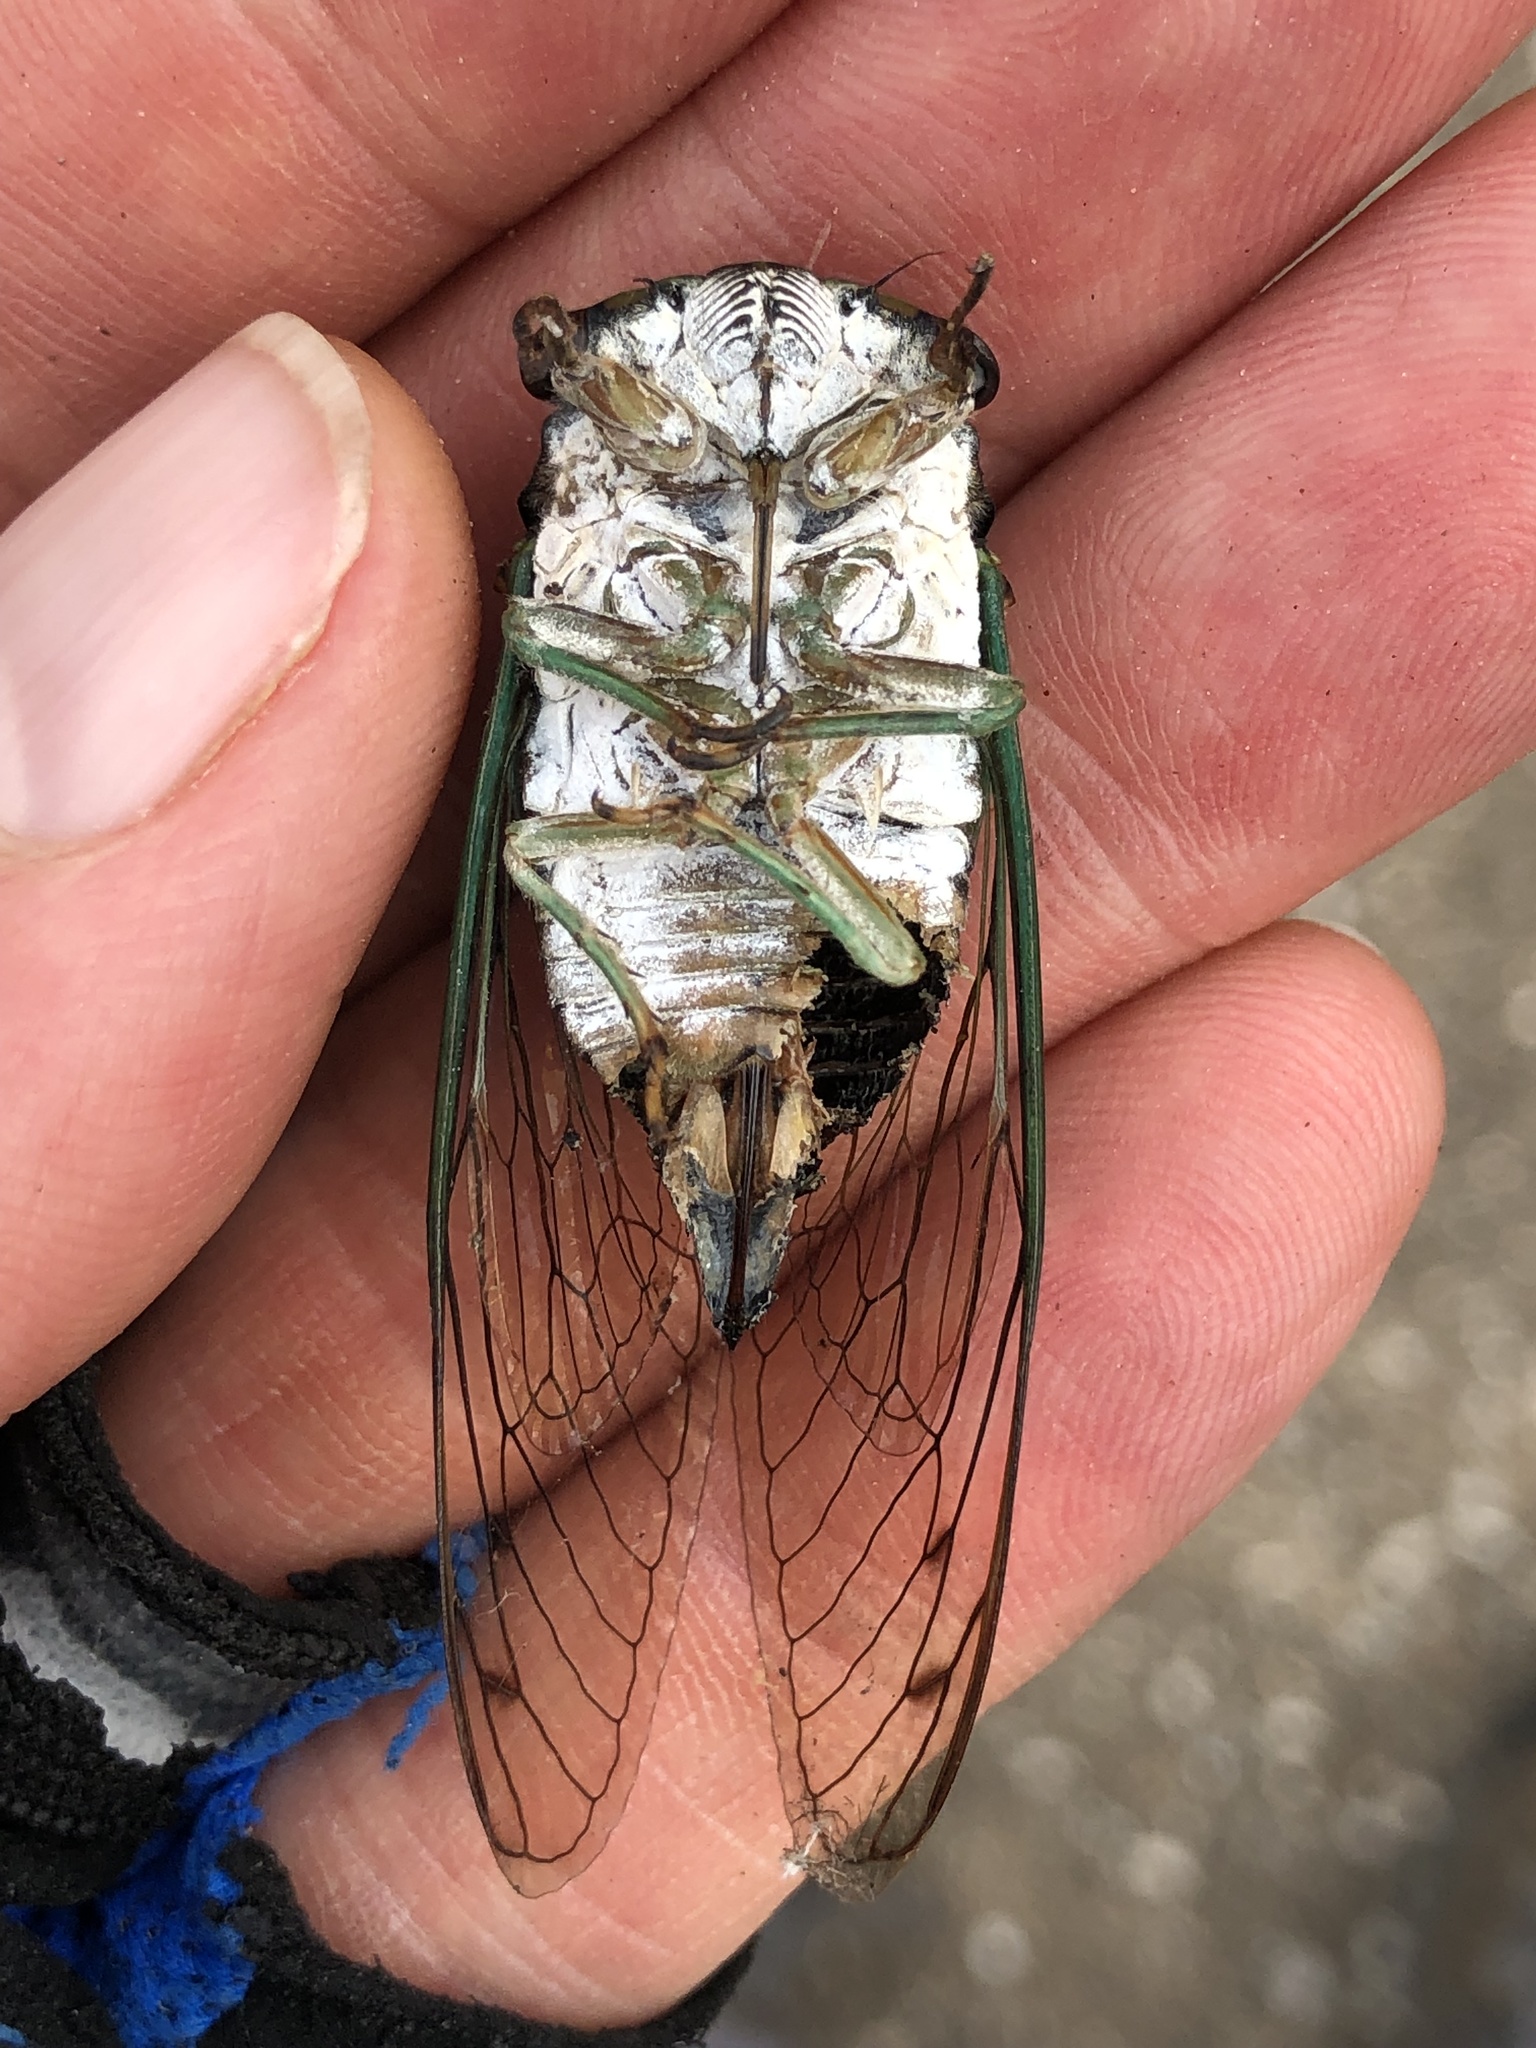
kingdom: Animalia
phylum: Arthropoda
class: Insecta
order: Hemiptera
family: Cicadidae
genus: Neotibicen
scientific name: Neotibicen tibicen
